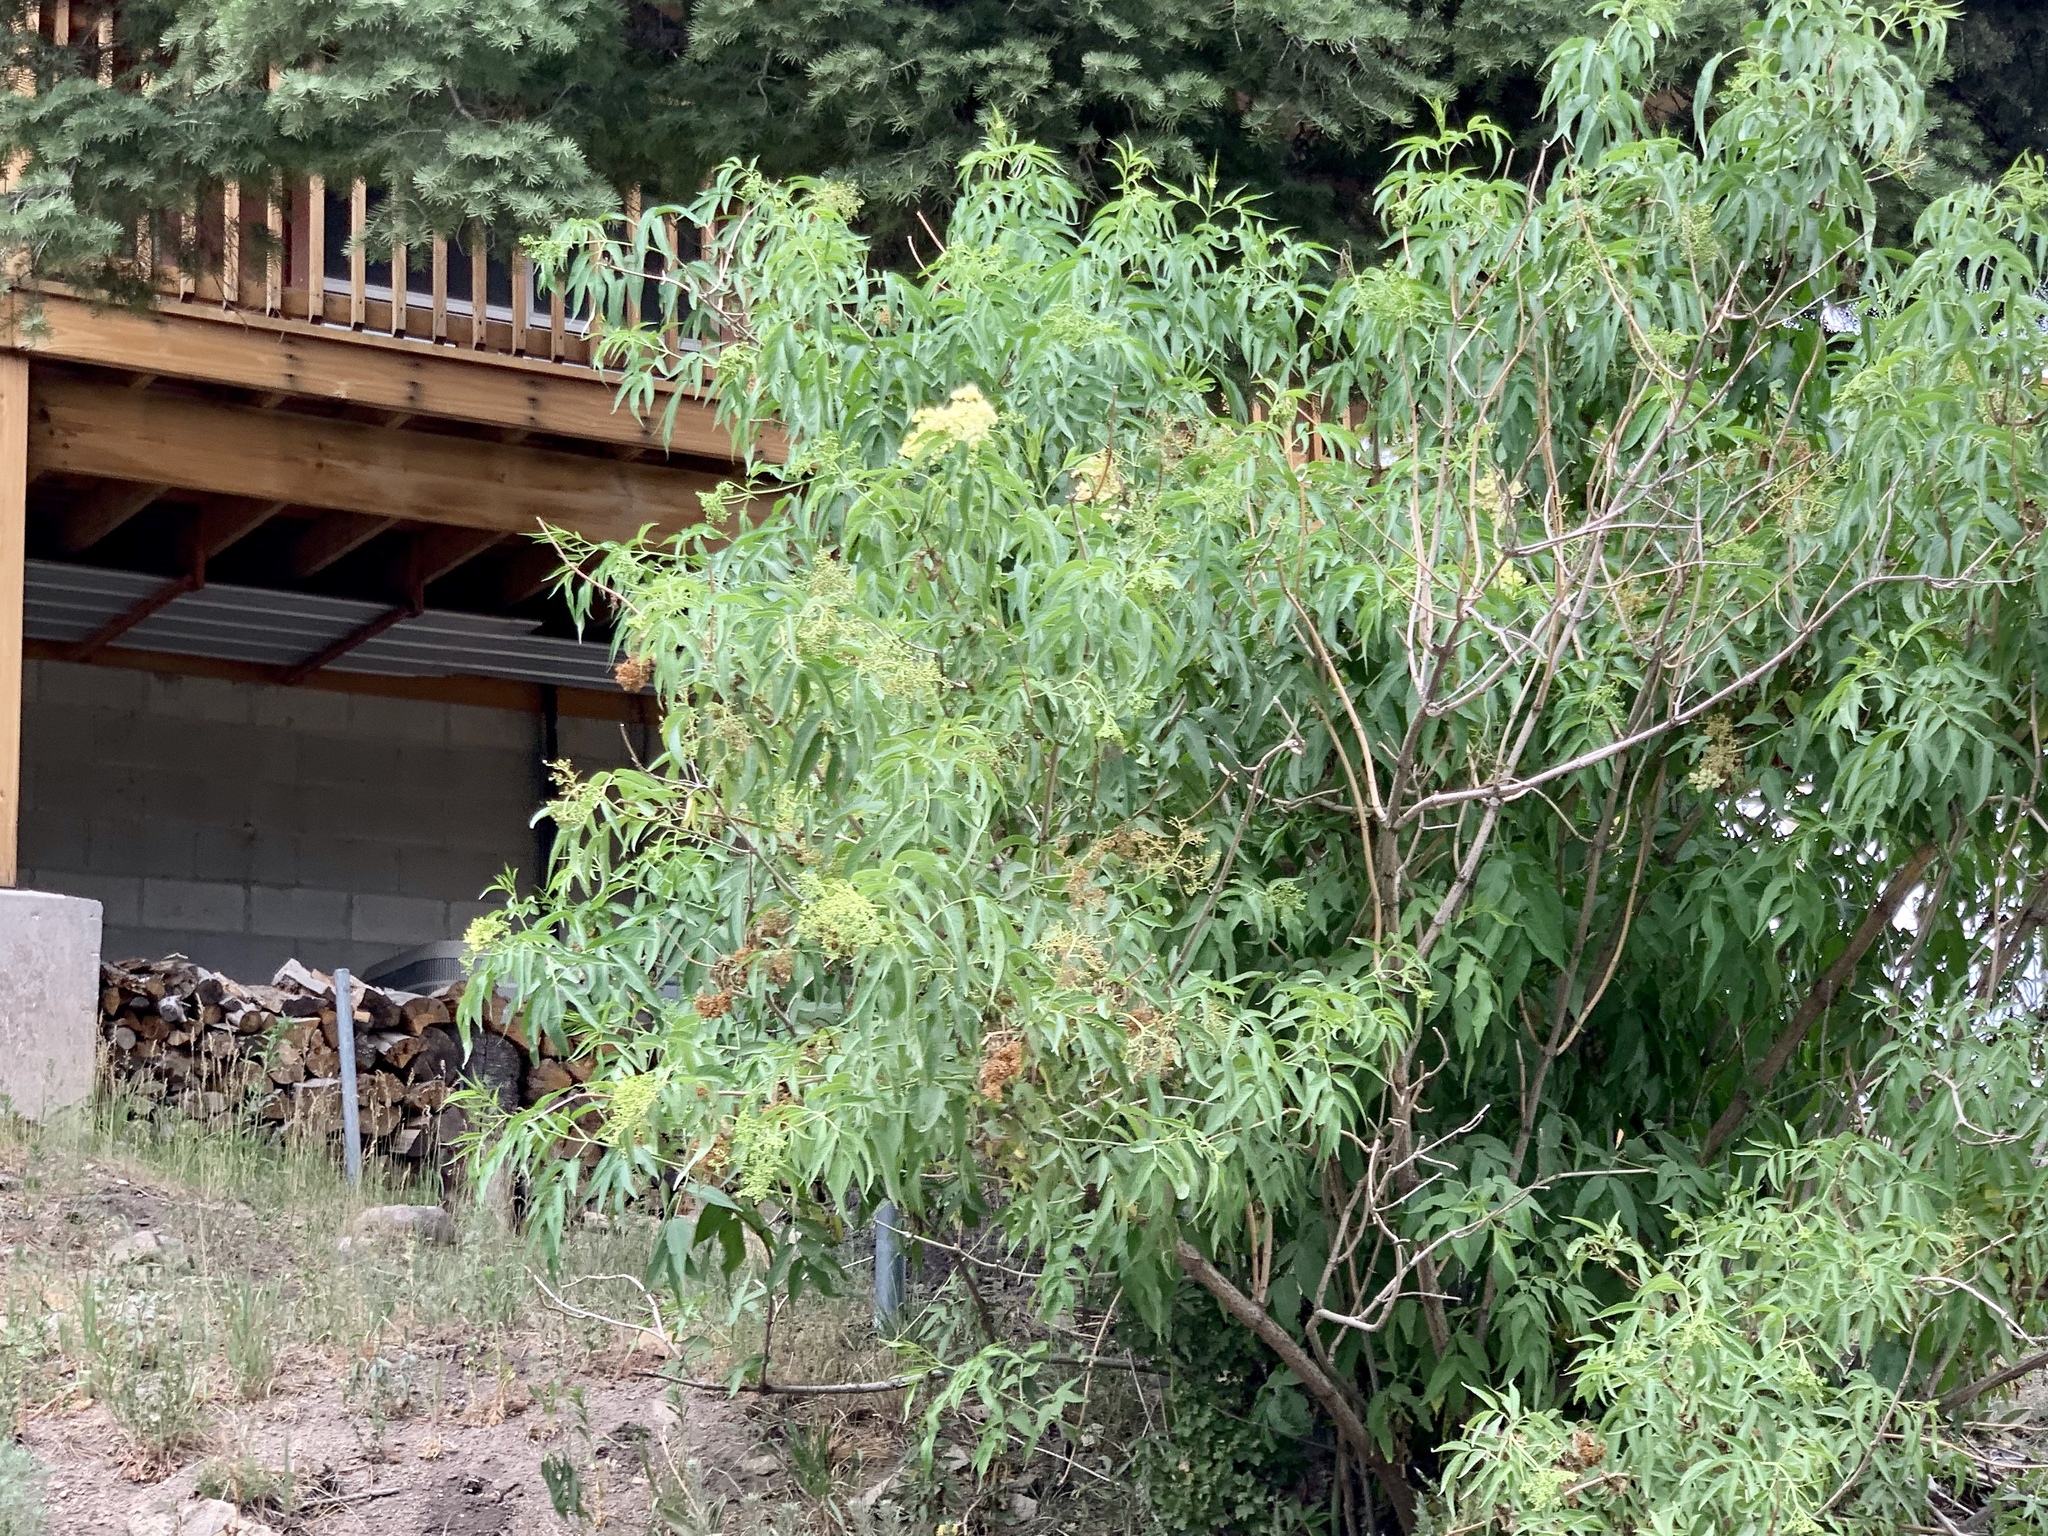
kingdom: Plantae
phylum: Tracheophyta
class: Magnoliopsida
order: Dipsacales
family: Viburnaceae
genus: Sambucus
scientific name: Sambucus cerulea
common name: Blue elder
